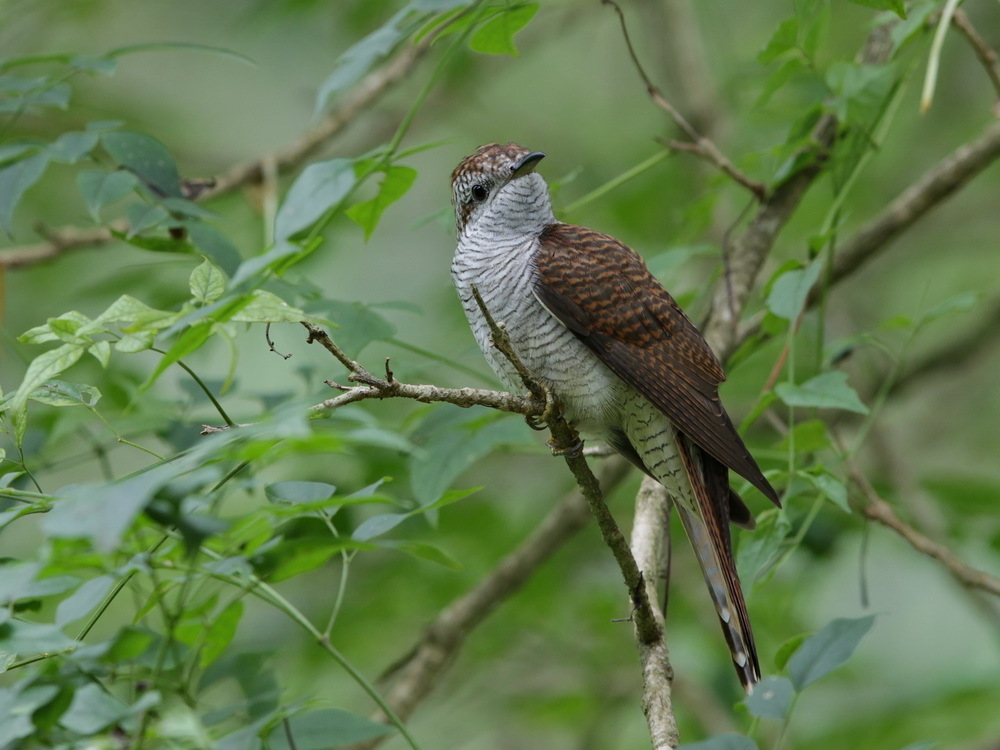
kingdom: Animalia
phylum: Chordata
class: Aves
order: Cuculiformes
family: Cuculidae
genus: Cacomantis
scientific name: Cacomantis sonneratii
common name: Banded bay cuckoo
